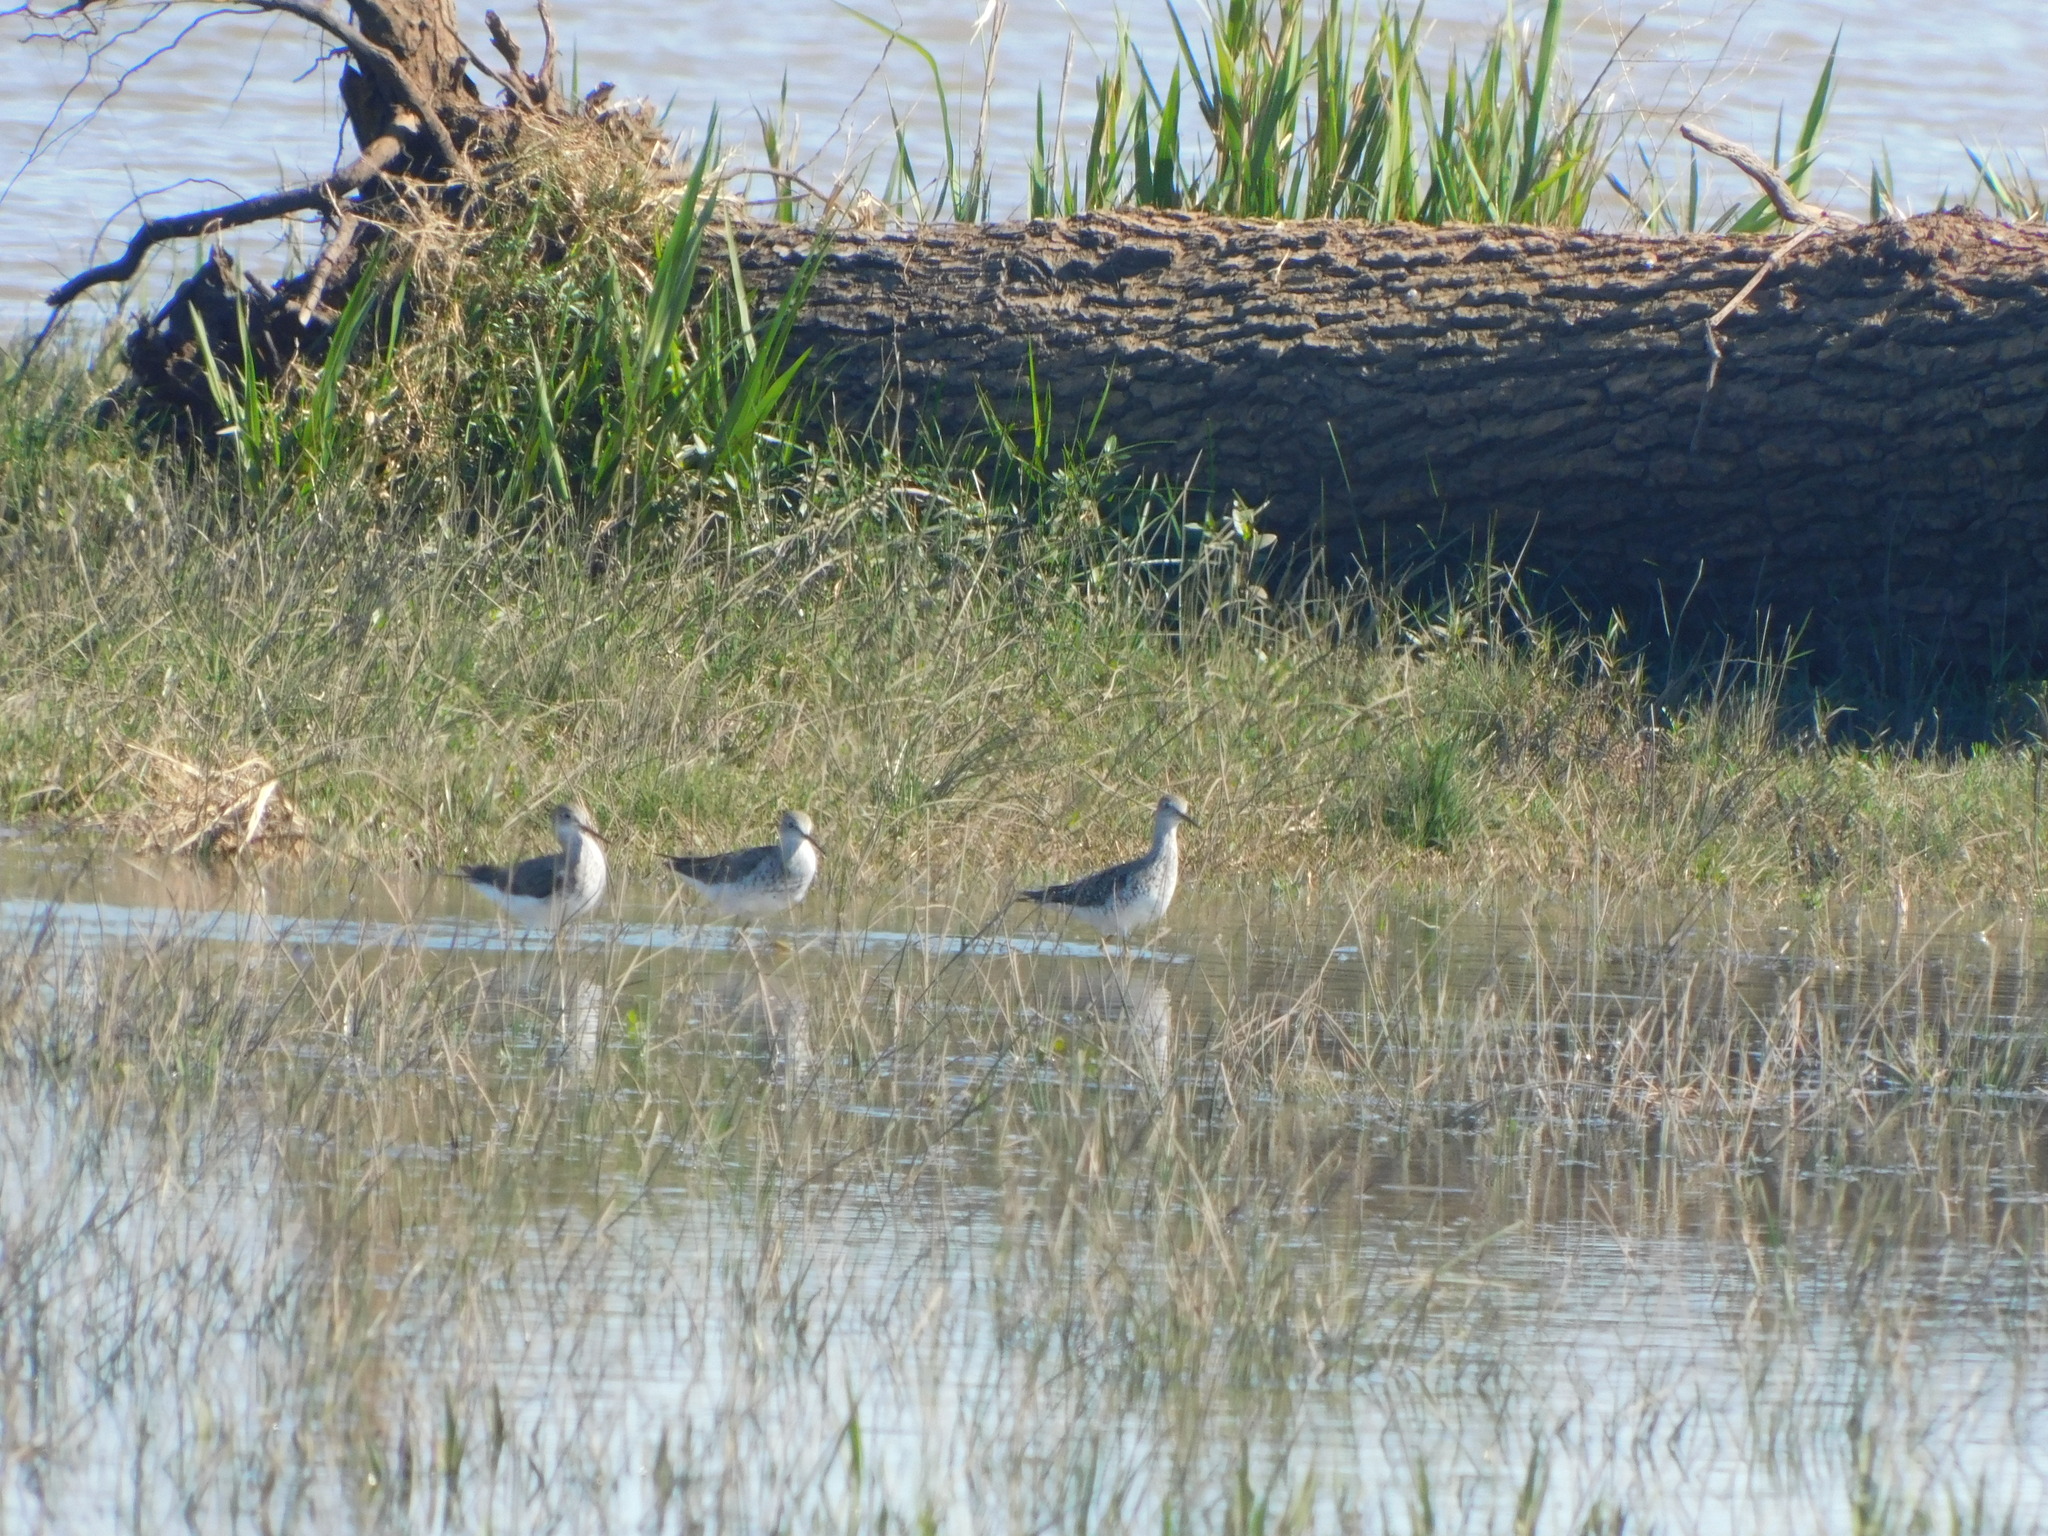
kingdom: Animalia
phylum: Chordata
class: Aves
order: Charadriiformes
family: Scolopacidae
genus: Tringa
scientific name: Tringa flavipes
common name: Lesser yellowlegs
